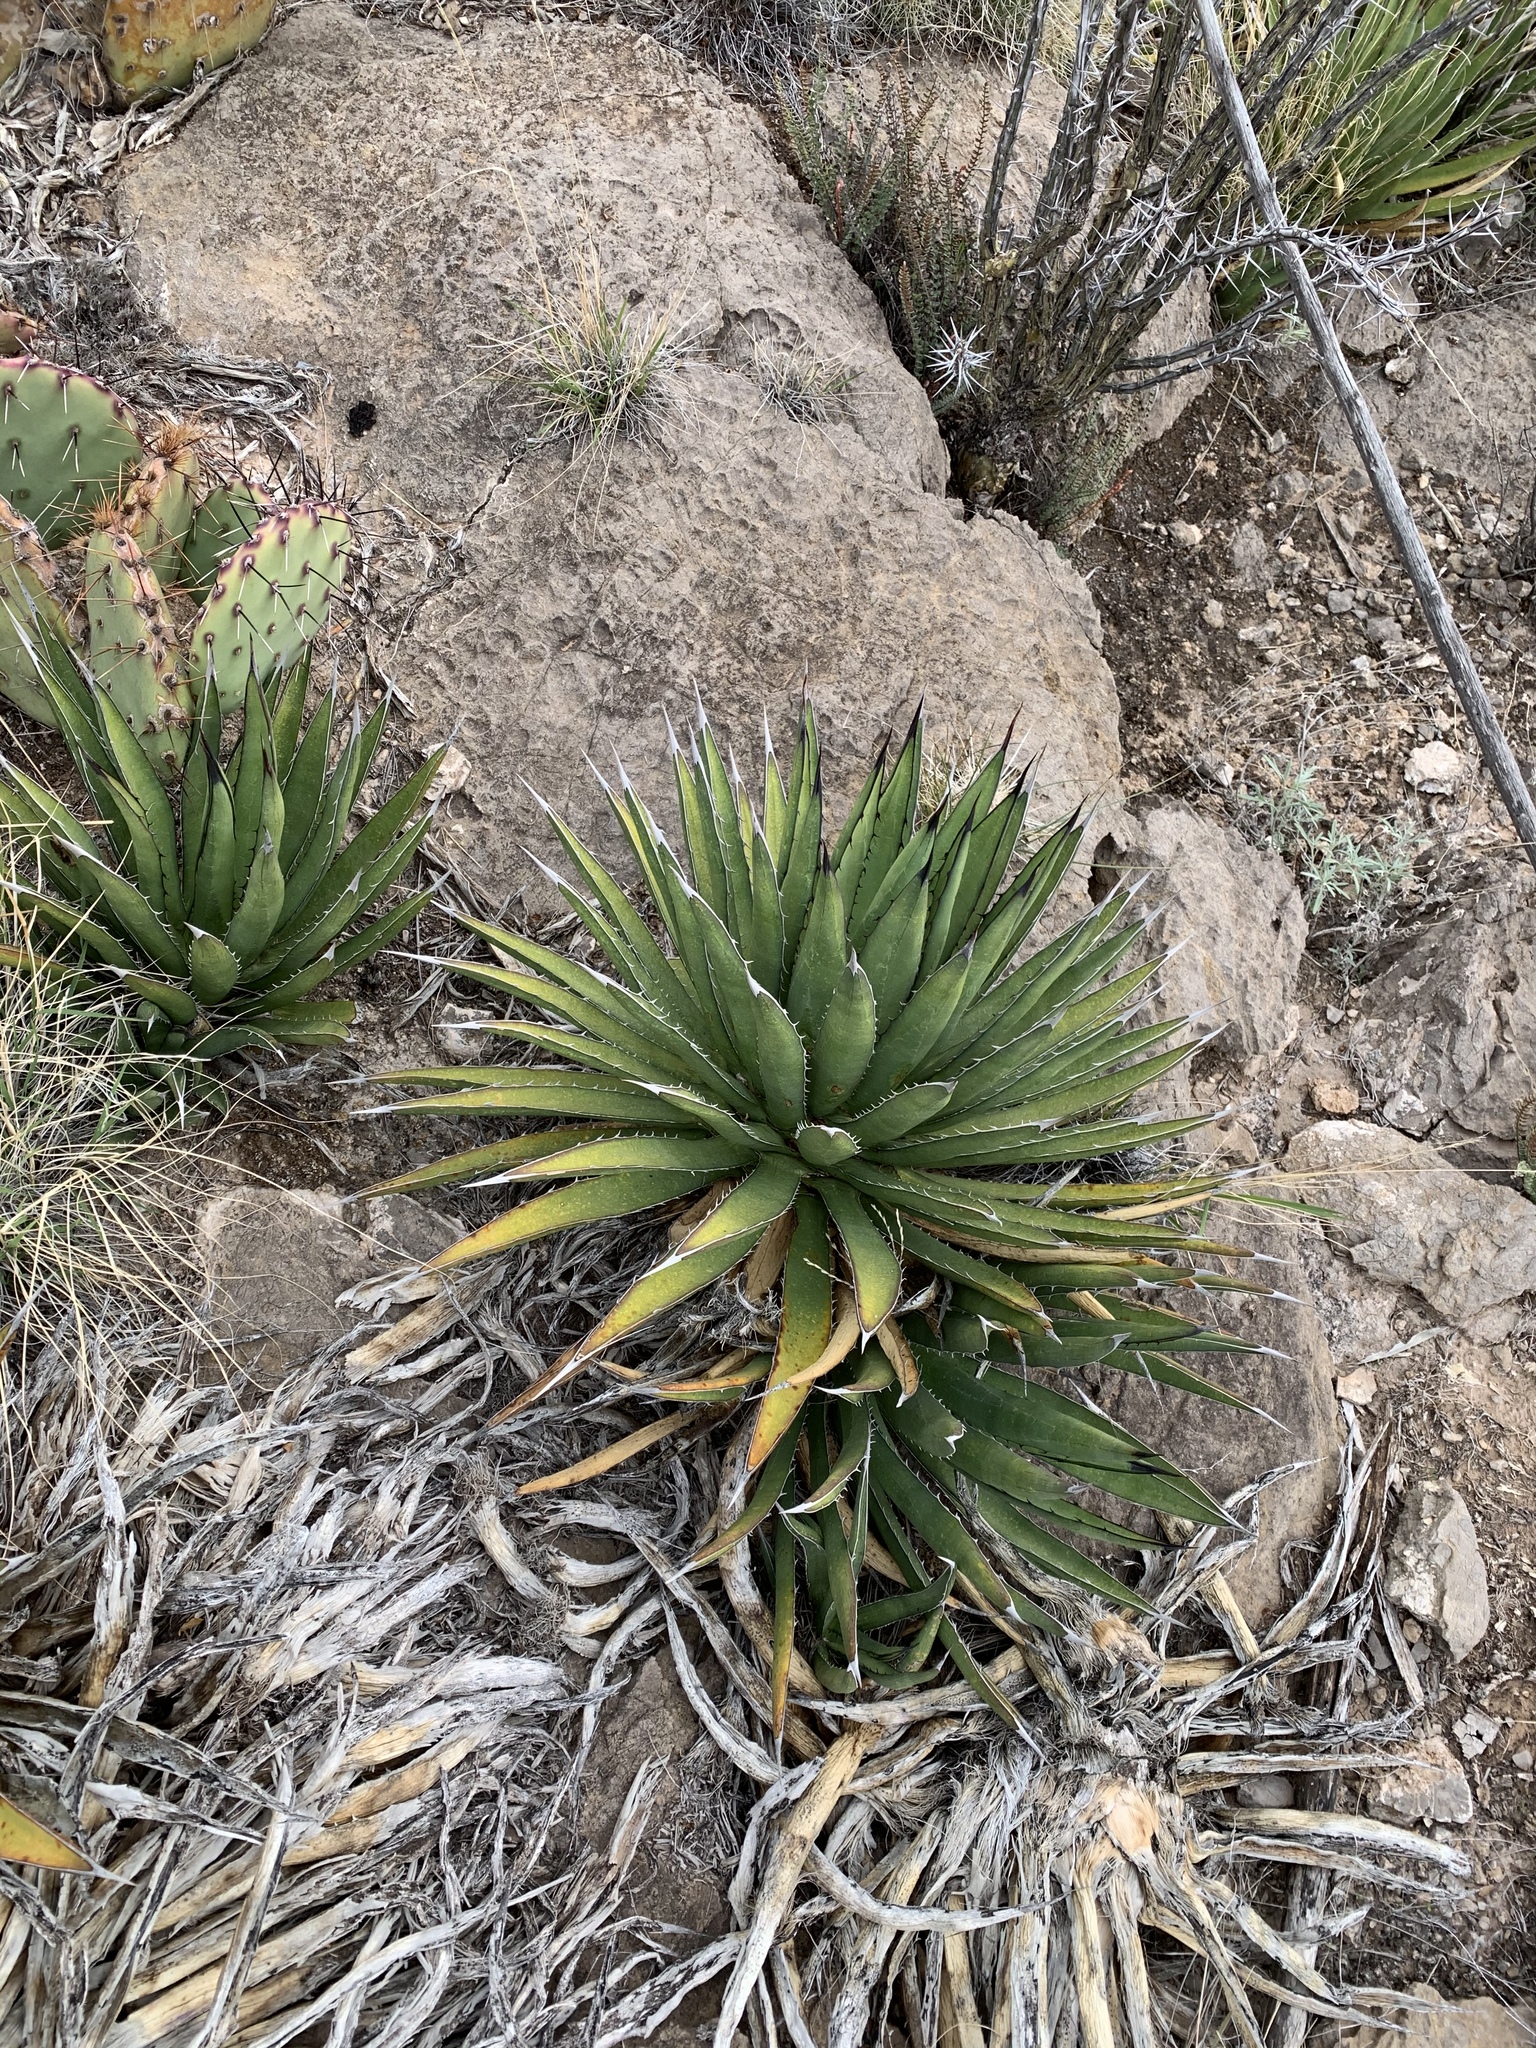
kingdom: Plantae
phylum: Tracheophyta
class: Liliopsida
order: Asparagales
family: Asparagaceae
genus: Agave
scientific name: Agave lechuguilla
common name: Lecheguilla agave
